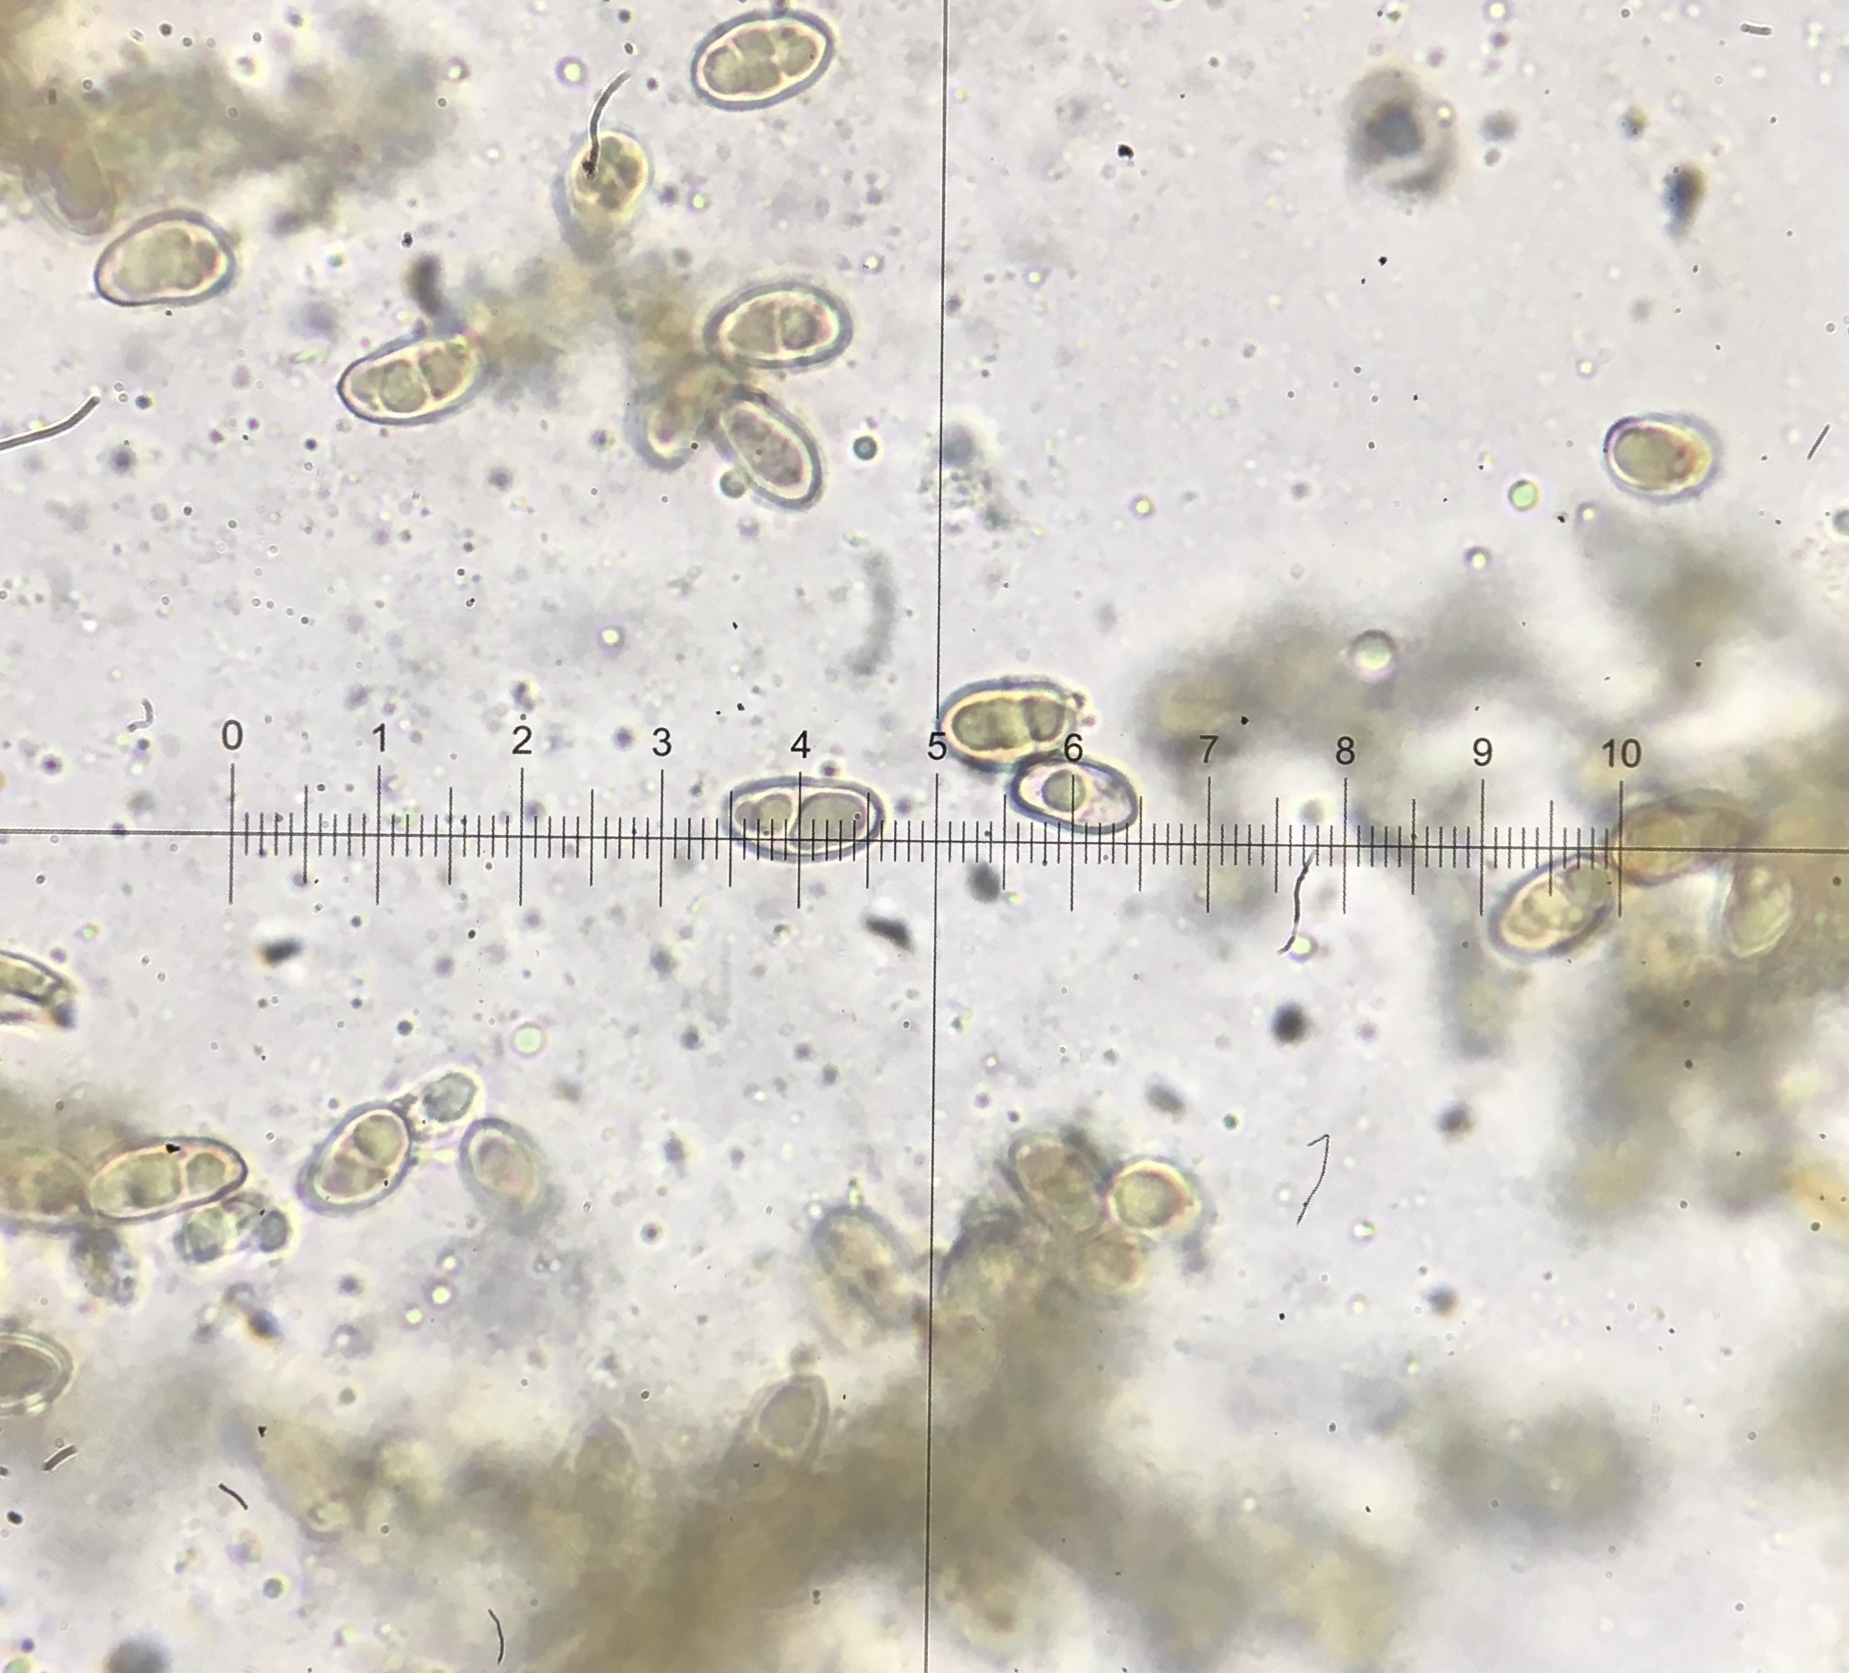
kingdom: Fungi
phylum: Basidiomycota
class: Agaricomycetes
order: Agaricales
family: Inocybaceae
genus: Inocybe
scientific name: Inocybe lacera
